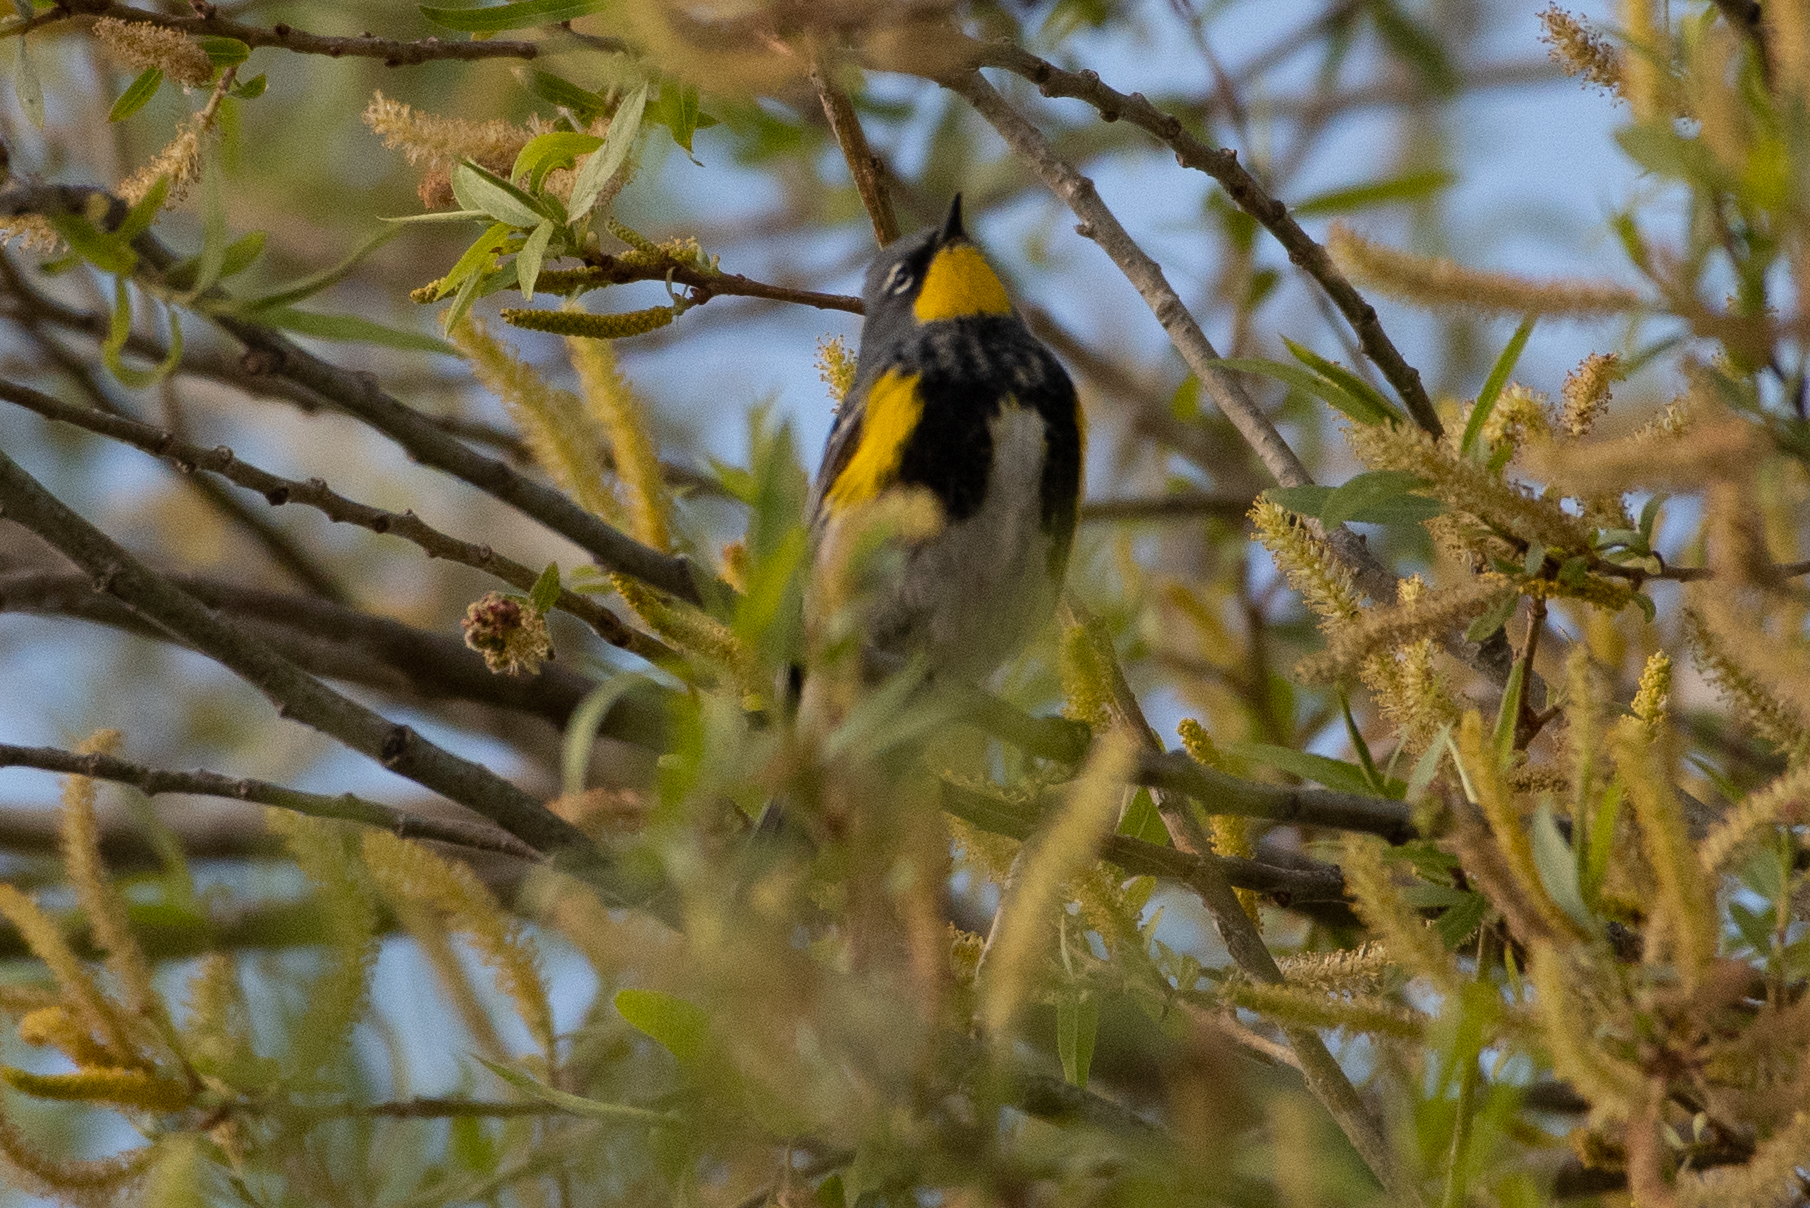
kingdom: Animalia
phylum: Chordata
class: Aves
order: Passeriformes
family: Parulidae
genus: Setophaga
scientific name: Setophaga auduboni
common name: Audubon's warbler
